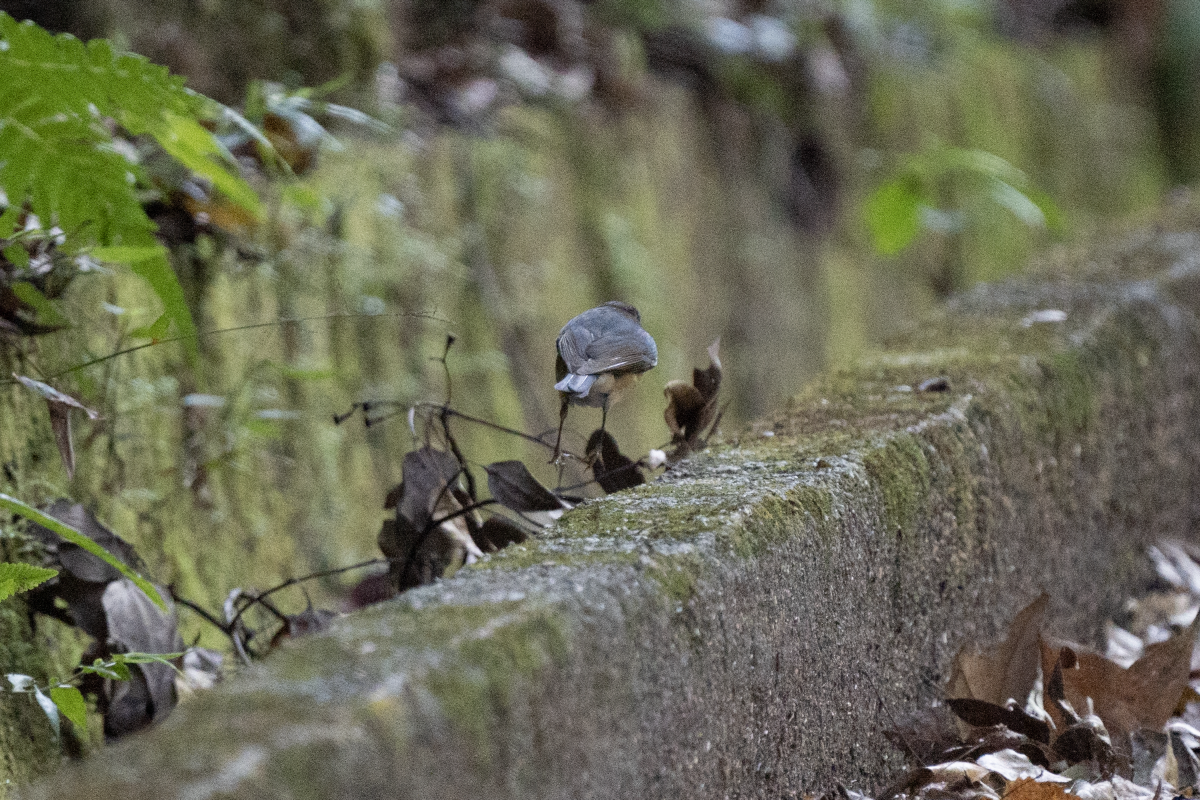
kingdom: Animalia
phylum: Chordata
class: Aves
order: Passeriformes
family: Muscicapidae
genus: Tarsiger
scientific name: Tarsiger cyanurus
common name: Red-flanked bluetail
